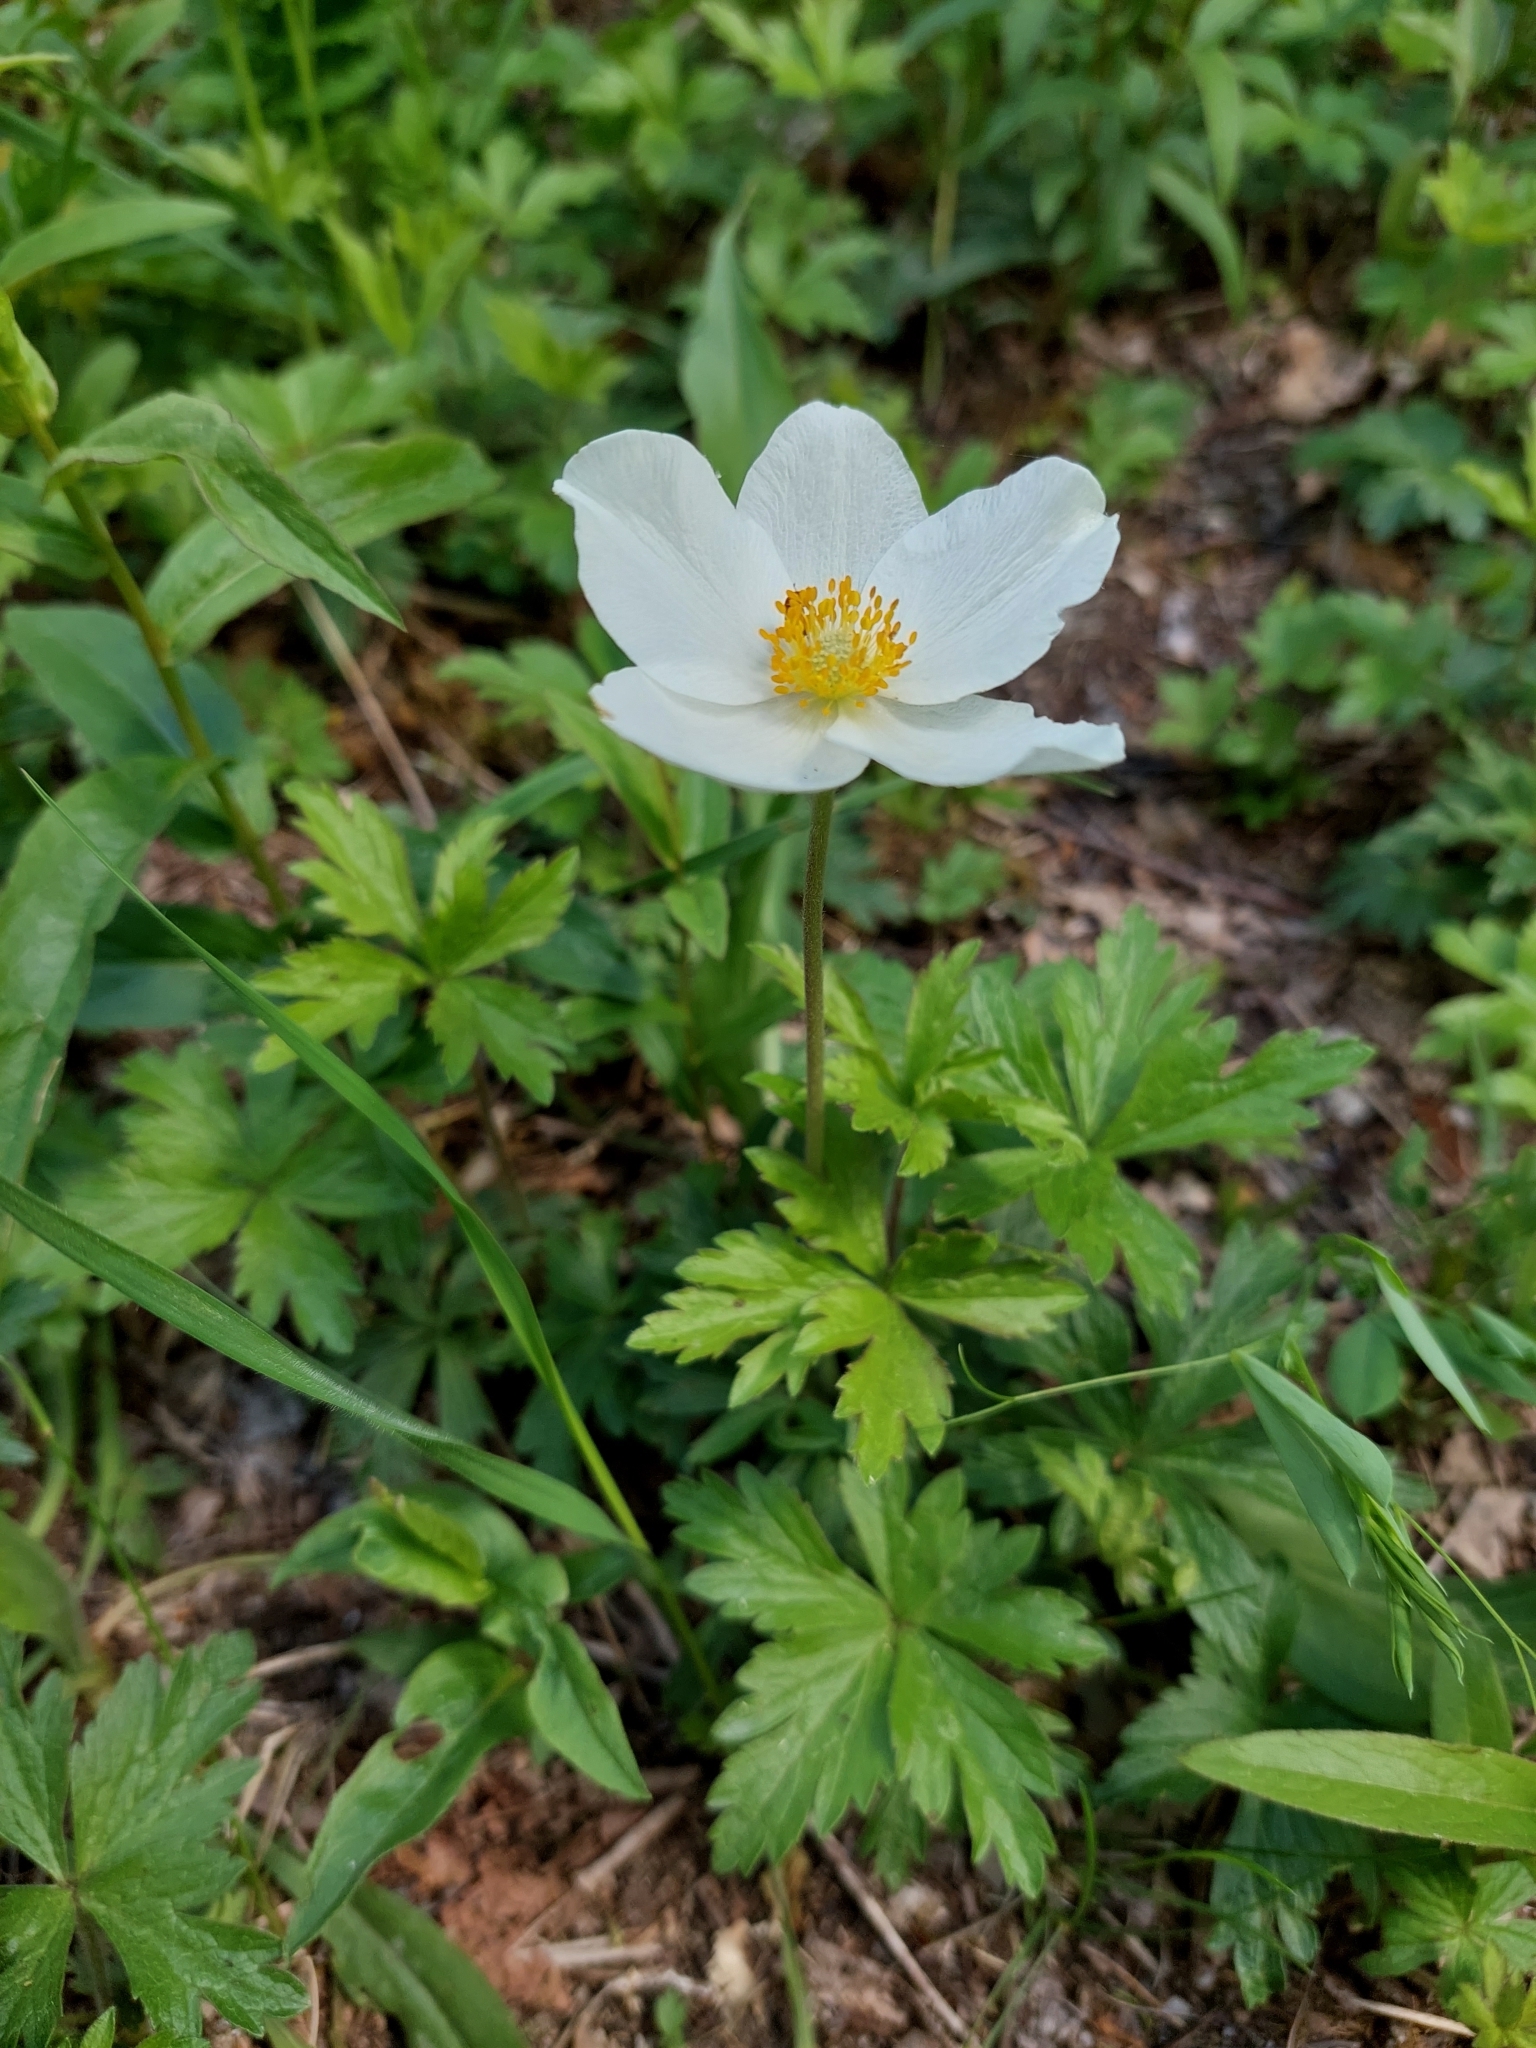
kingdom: Plantae
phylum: Tracheophyta
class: Magnoliopsida
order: Ranunculales
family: Ranunculaceae
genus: Anemone
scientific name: Anemone sylvestris
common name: Snowdrop anemone
